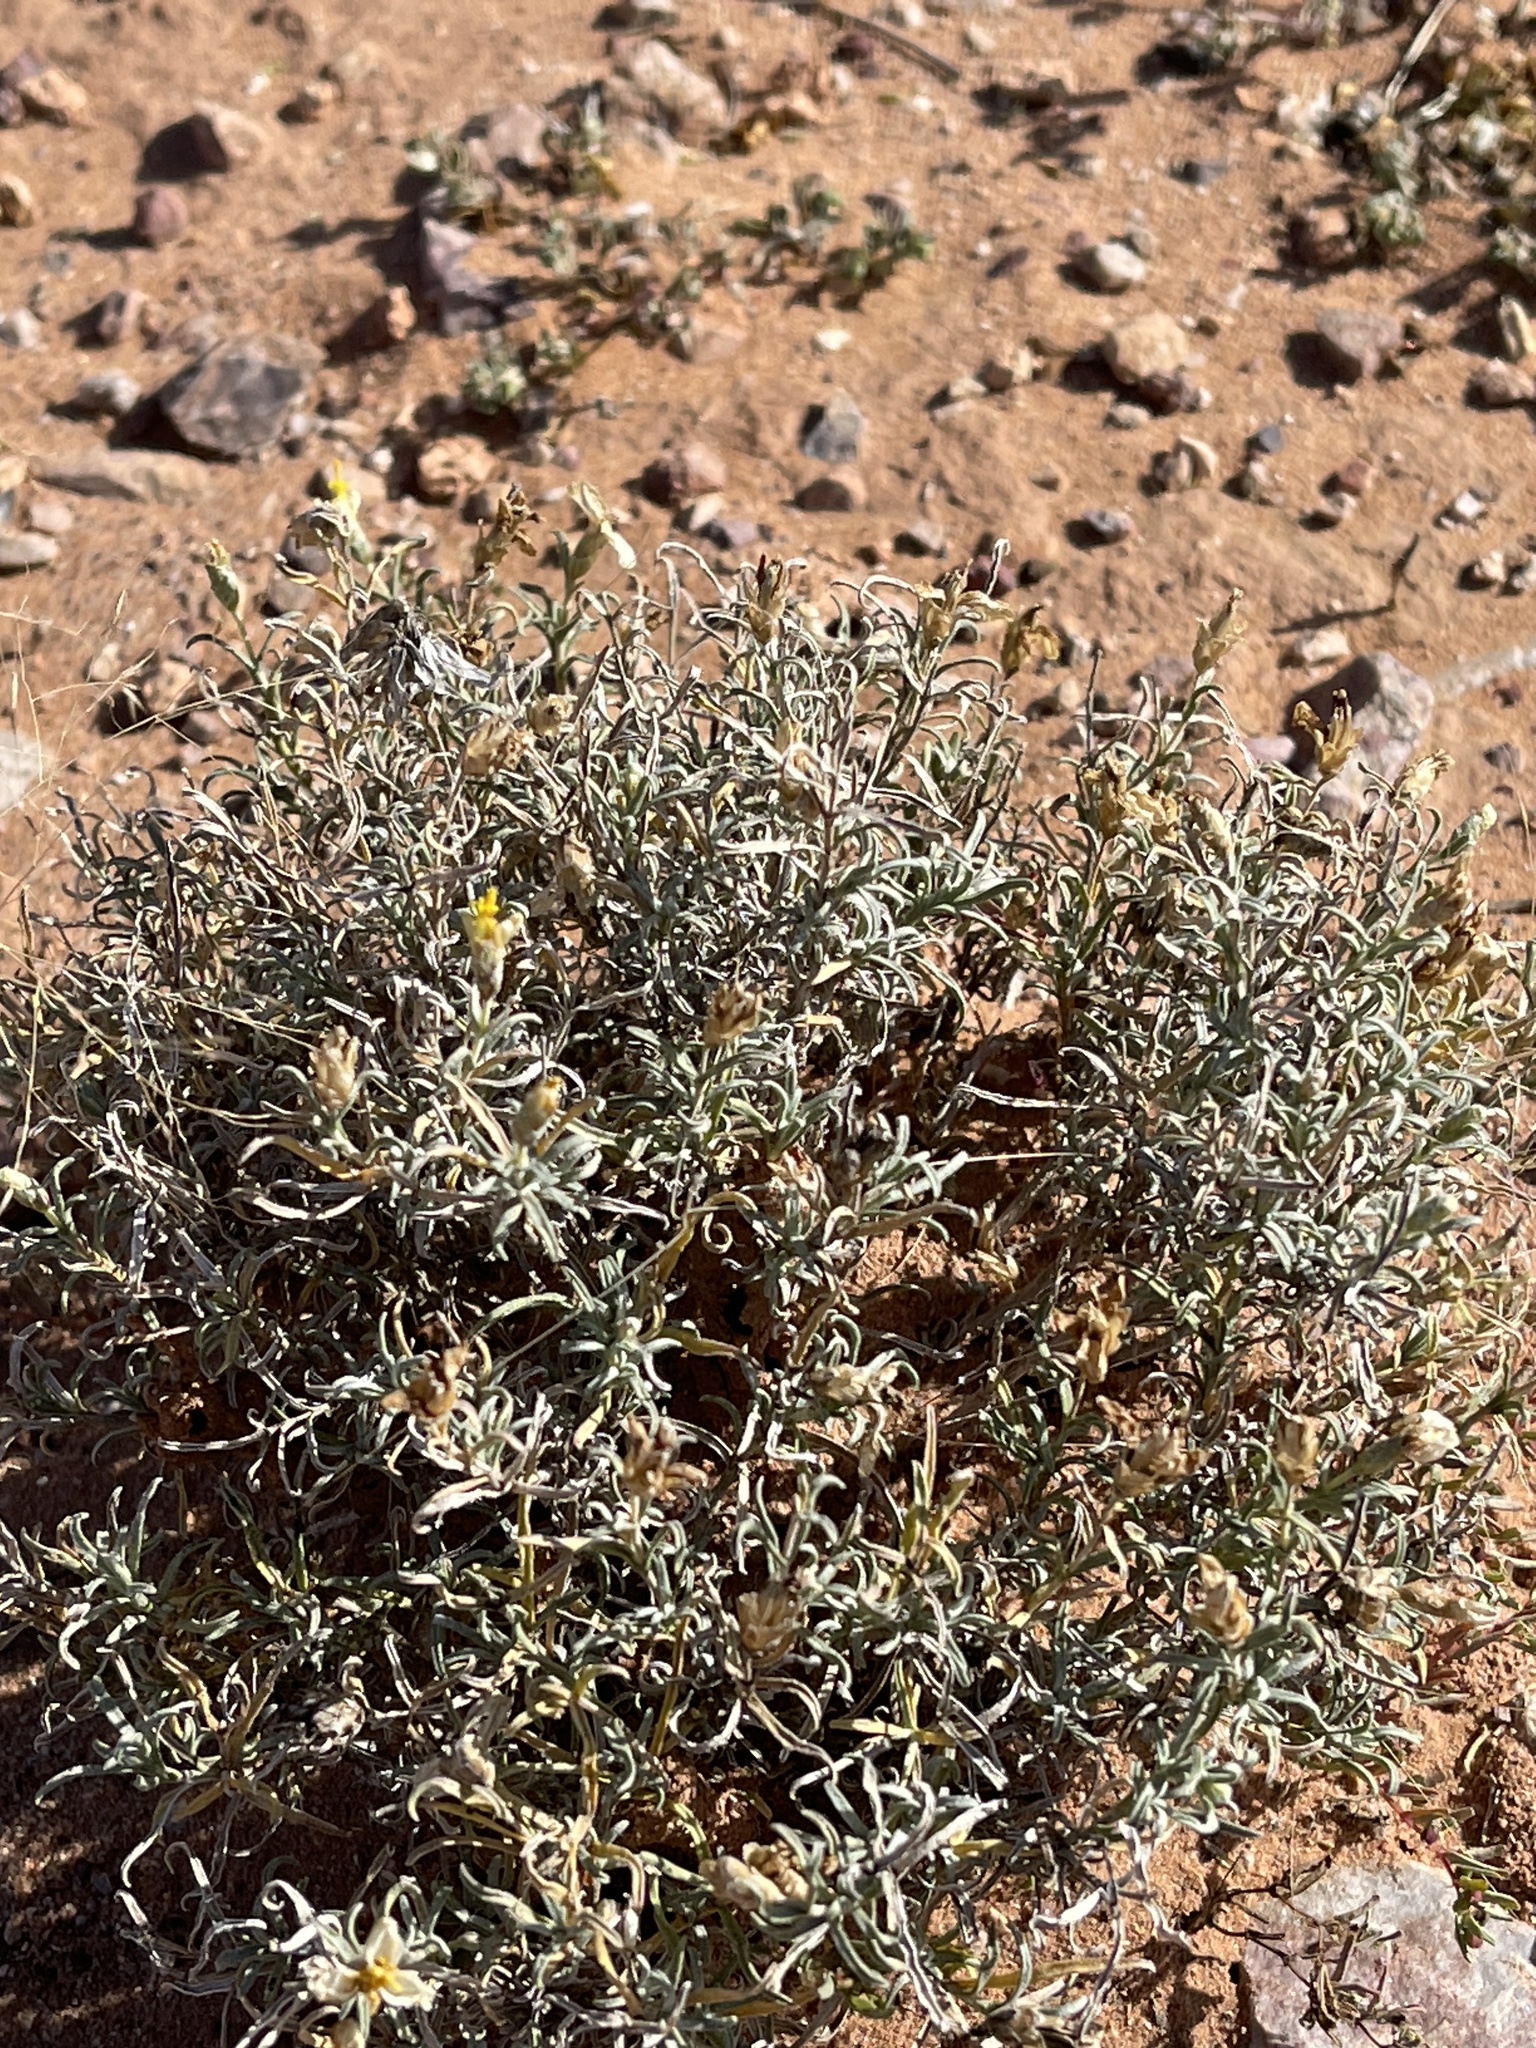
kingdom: Plantae
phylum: Tracheophyta
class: Magnoliopsida
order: Asterales
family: Asteraceae
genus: Zinnia
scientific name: Zinnia acerosa
